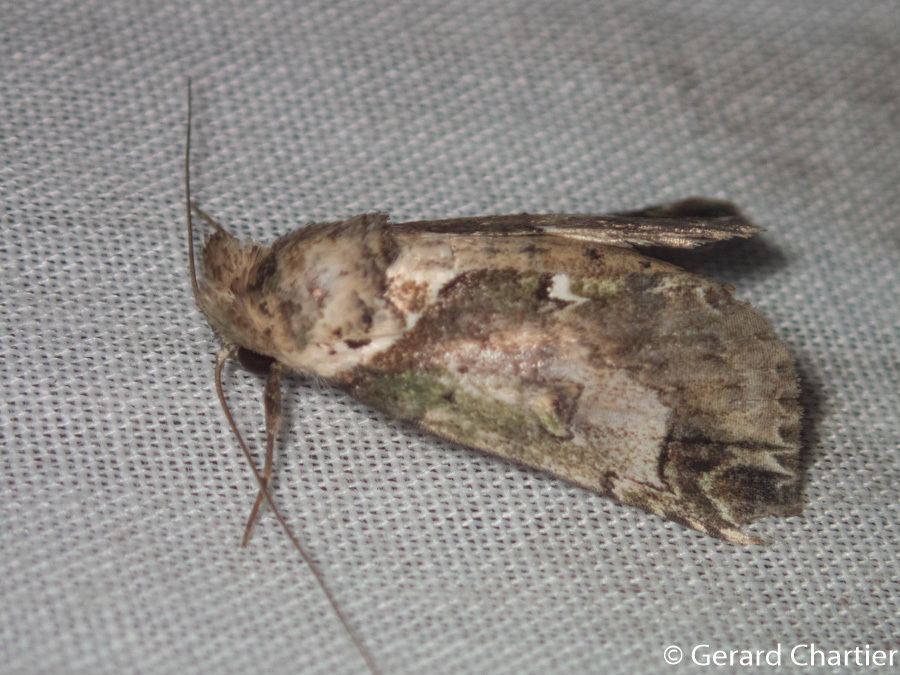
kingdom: Animalia
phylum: Arthropoda
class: Insecta
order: Lepidoptera
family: Nolidae
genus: Risoba
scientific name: Risoba basalis
